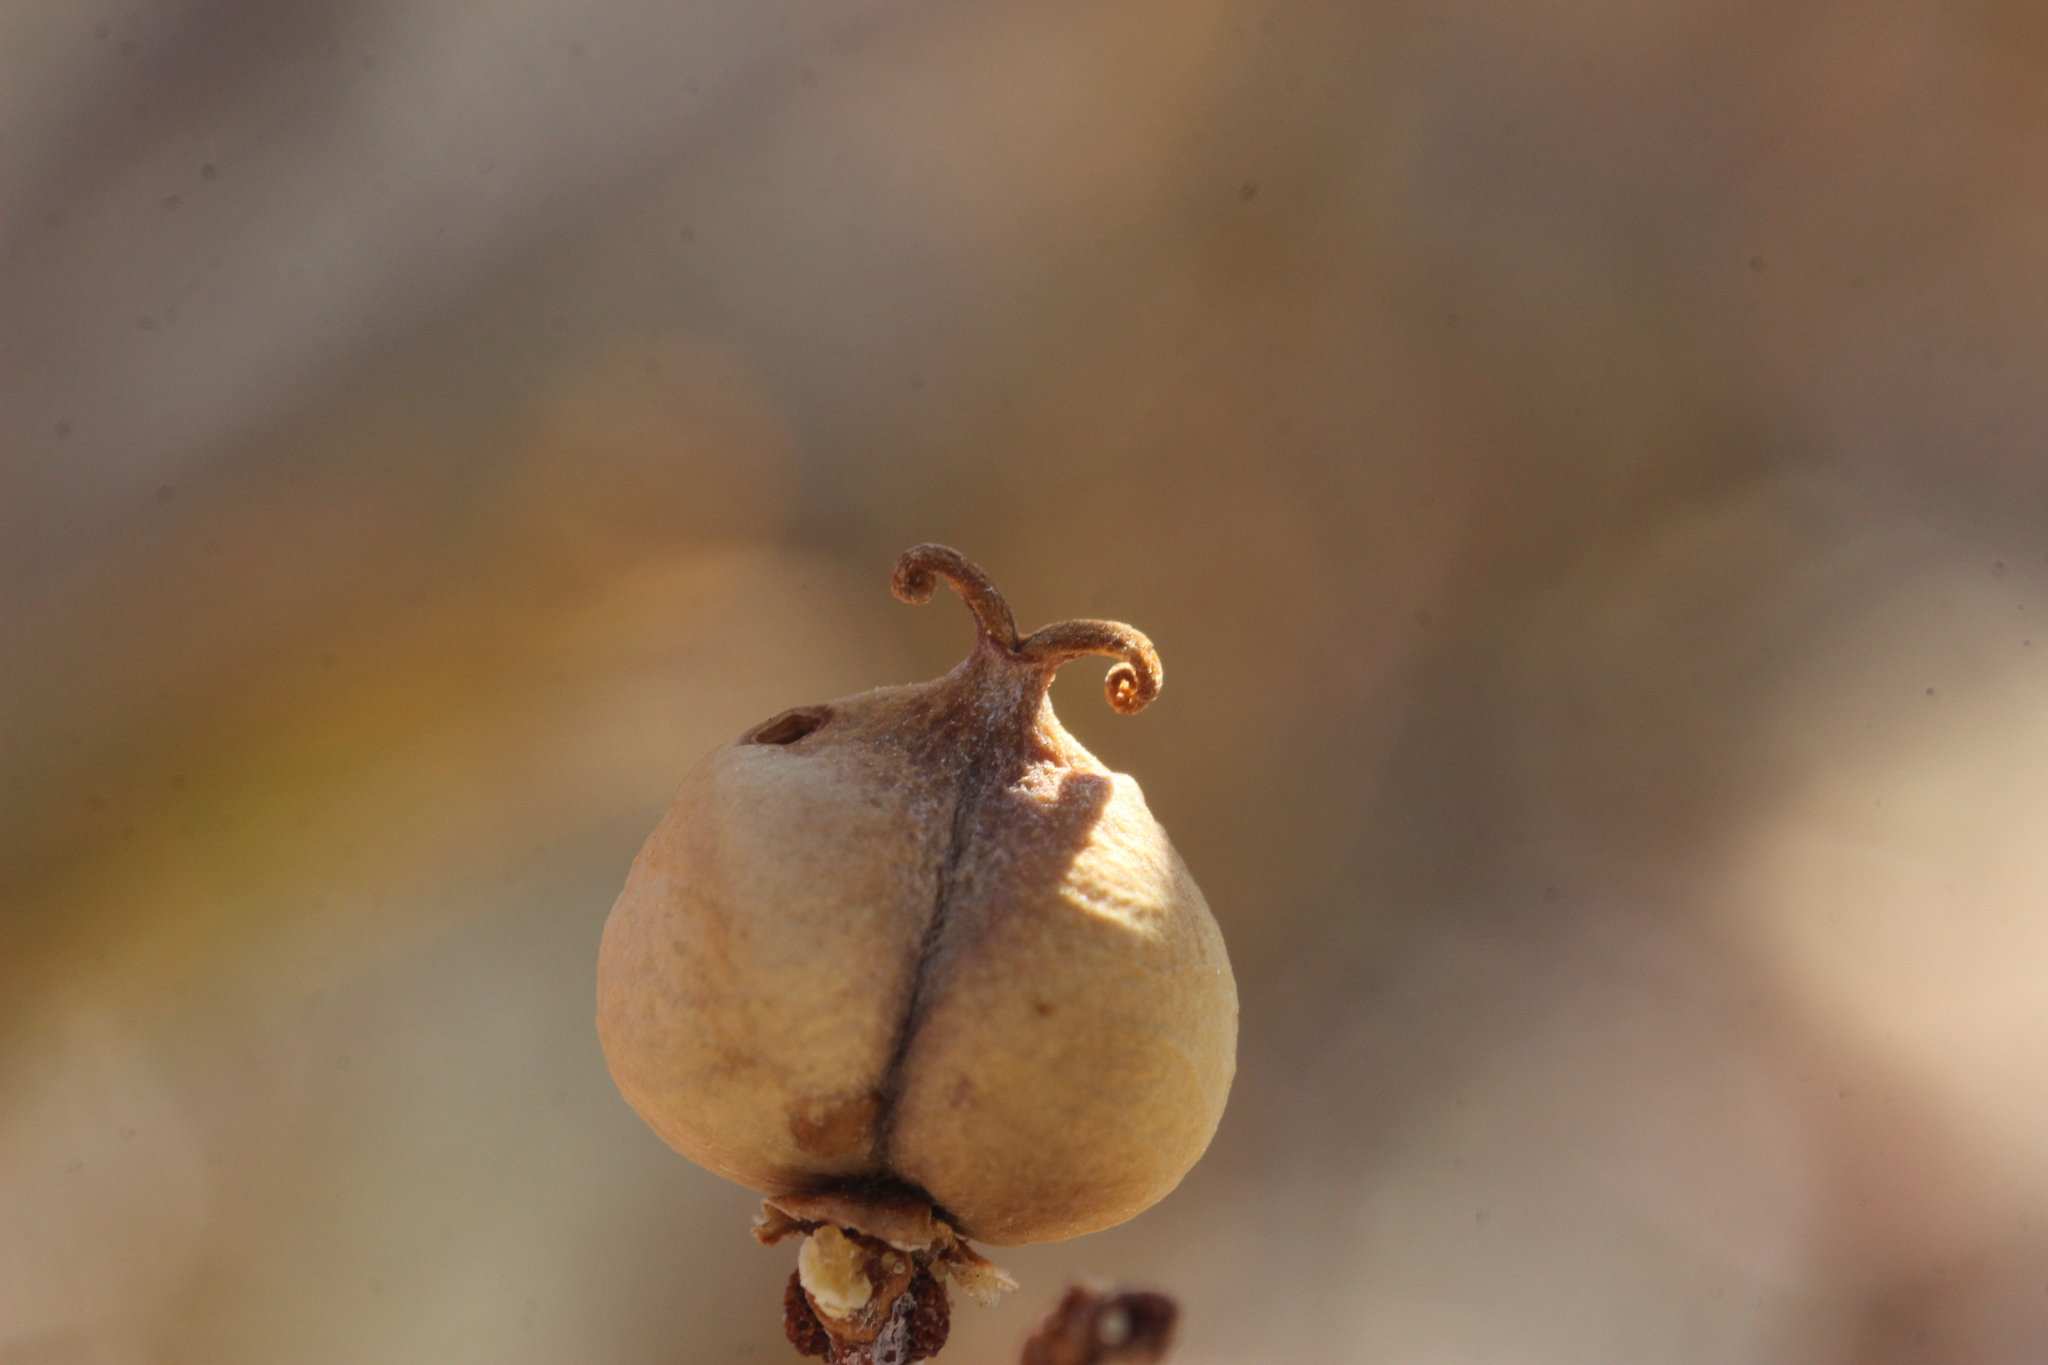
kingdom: Plantae
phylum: Tracheophyta
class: Magnoliopsida
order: Malpighiales
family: Euphorbiaceae
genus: Pleradenophora
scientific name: Pleradenophora bilocularis
